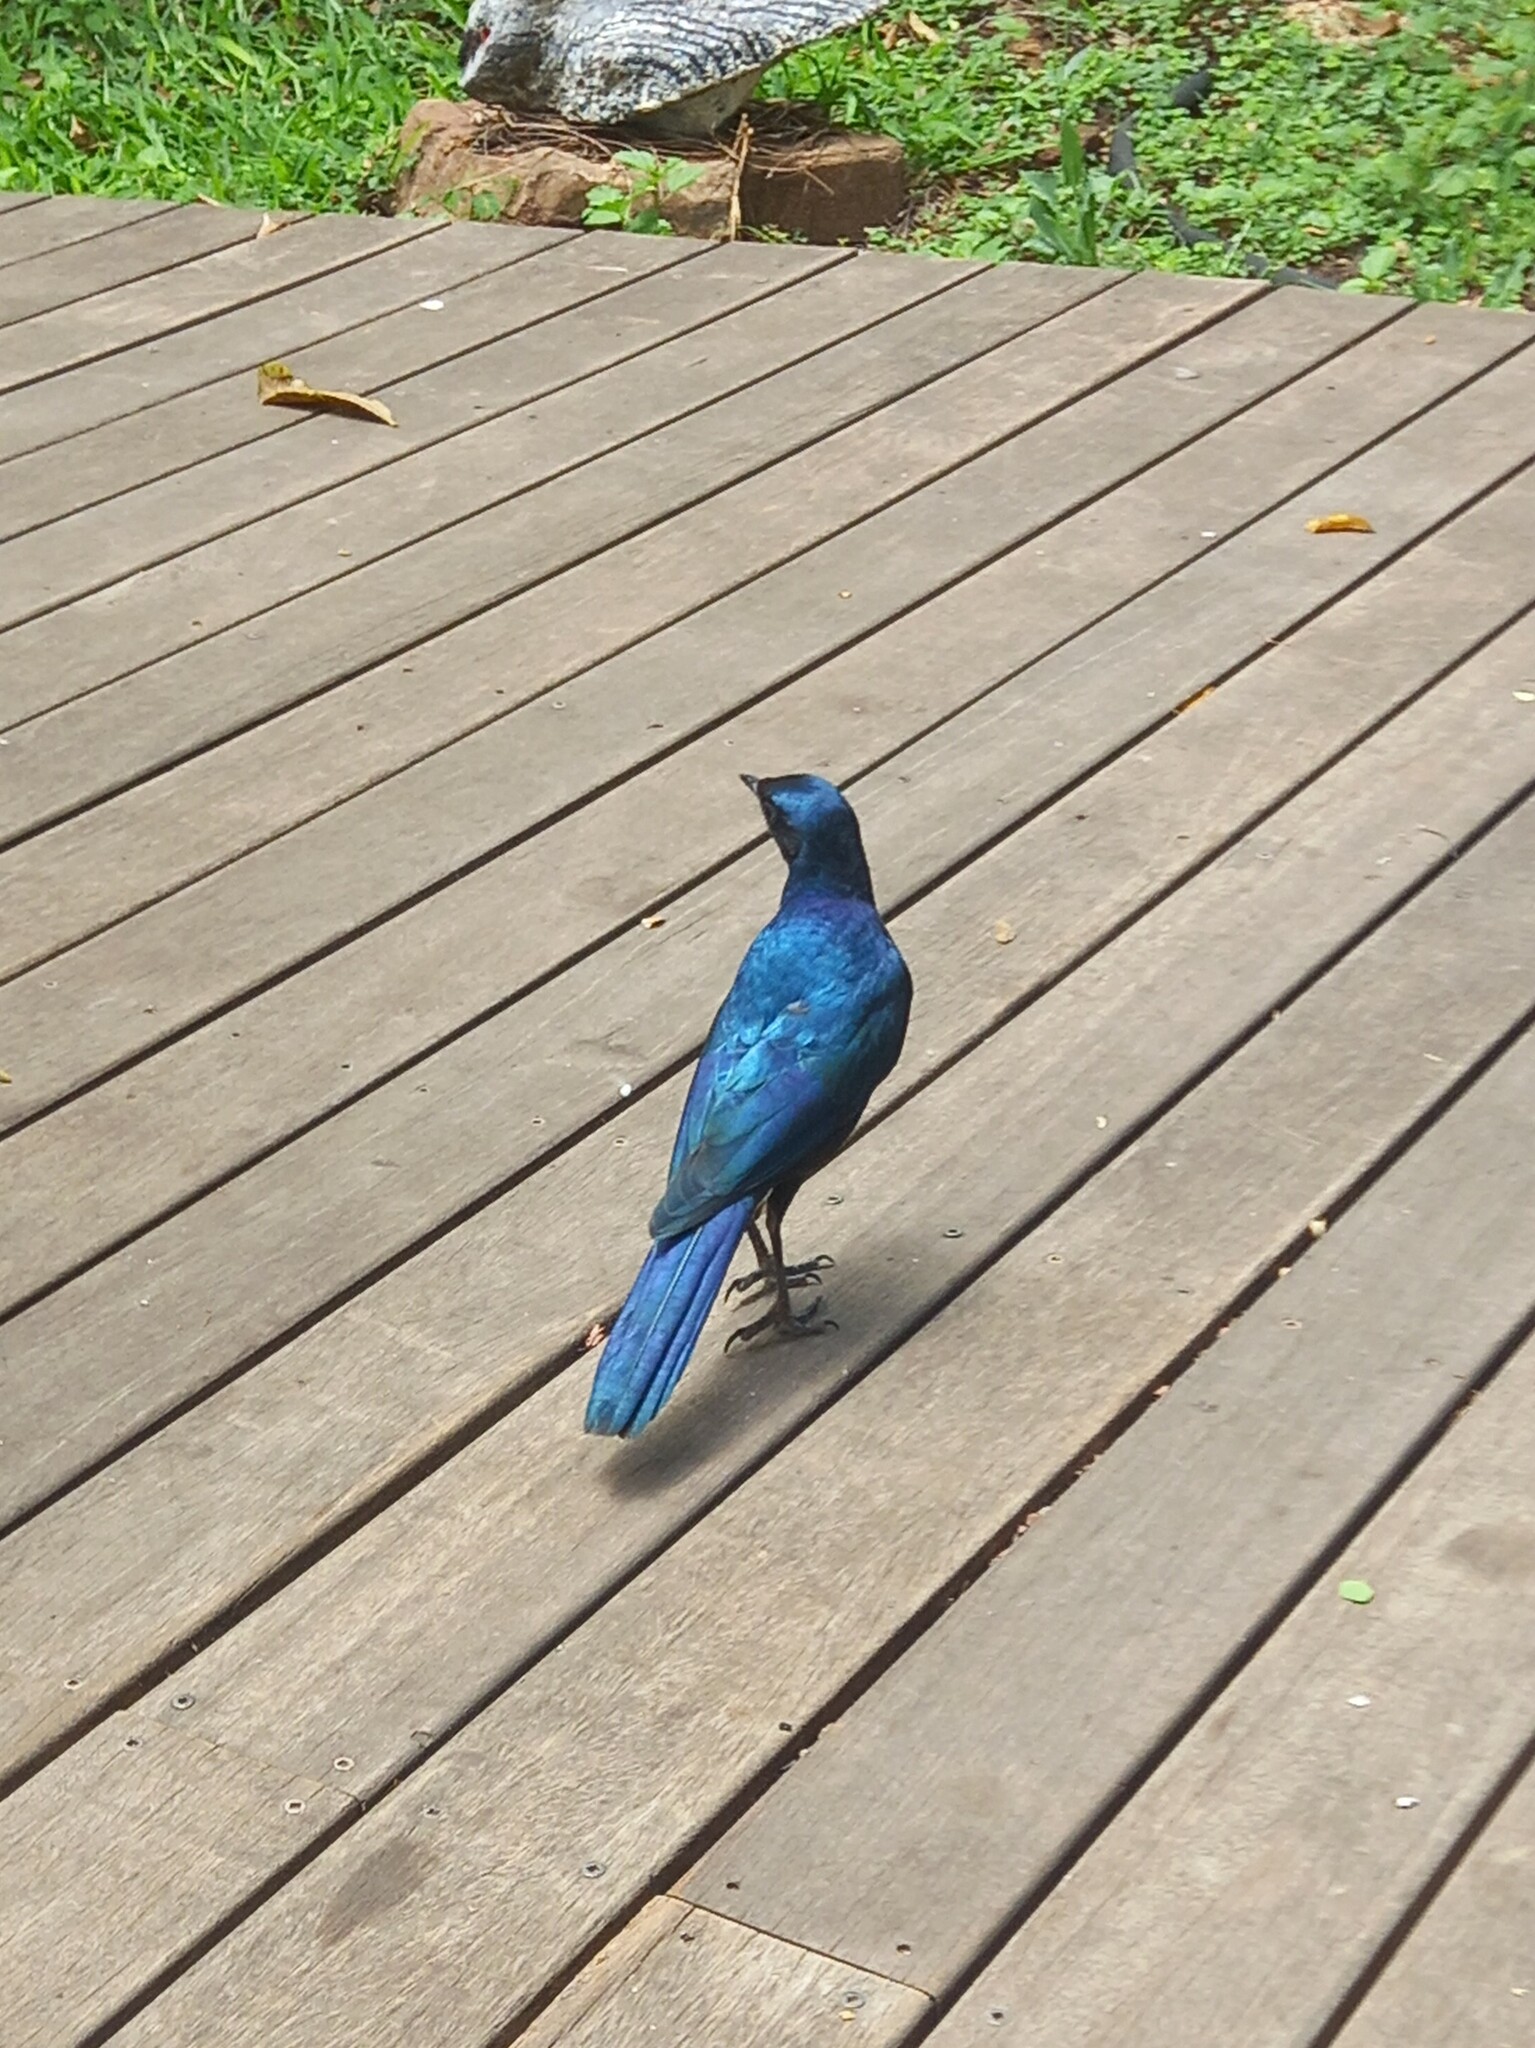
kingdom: Animalia
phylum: Chordata
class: Aves
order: Passeriformes
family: Sturnidae
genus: Lamprotornis
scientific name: Lamprotornis australis
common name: Burchell's starling
